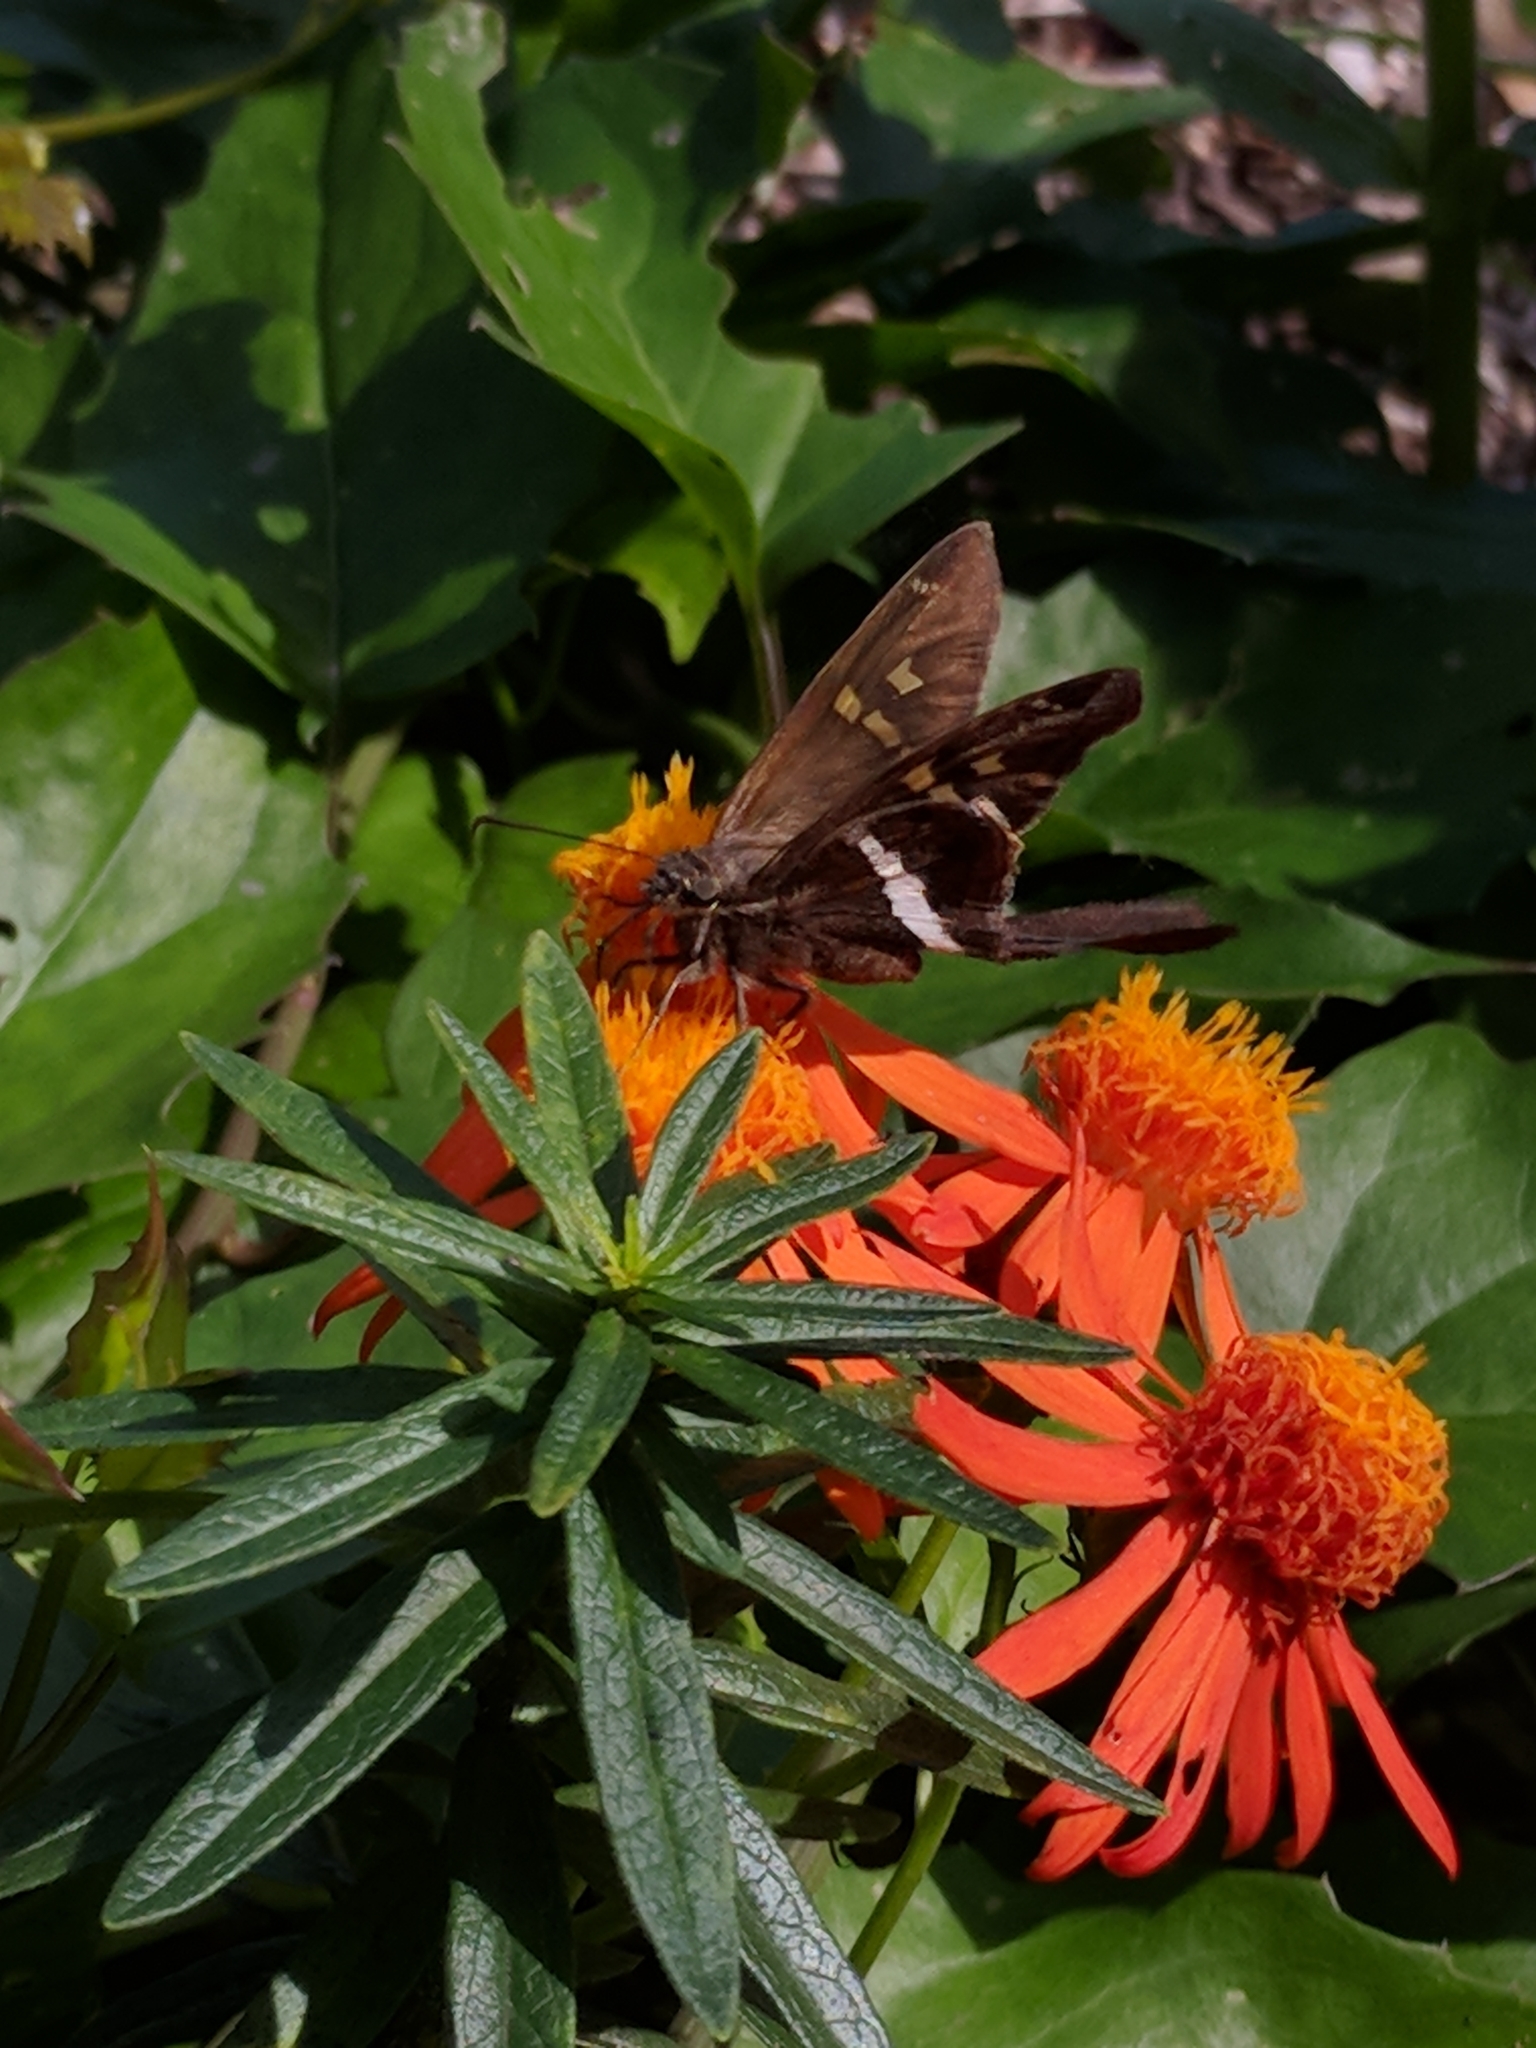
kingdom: Animalia
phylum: Arthropoda
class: Insecta
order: Lepidoptera
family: Hesperiidae
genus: Chioides
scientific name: Chioides catillus
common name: Silverbanded skipper
